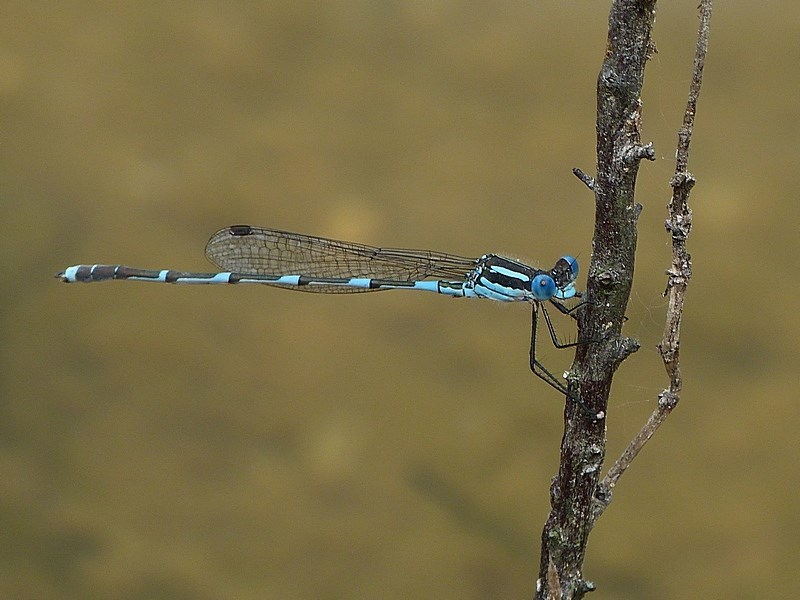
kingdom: Animalia
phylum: Arthropoda
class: Insecta
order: Odonata
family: Lestidae
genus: Austrolestes
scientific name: Austrolestes leda
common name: Wandering ringtail
